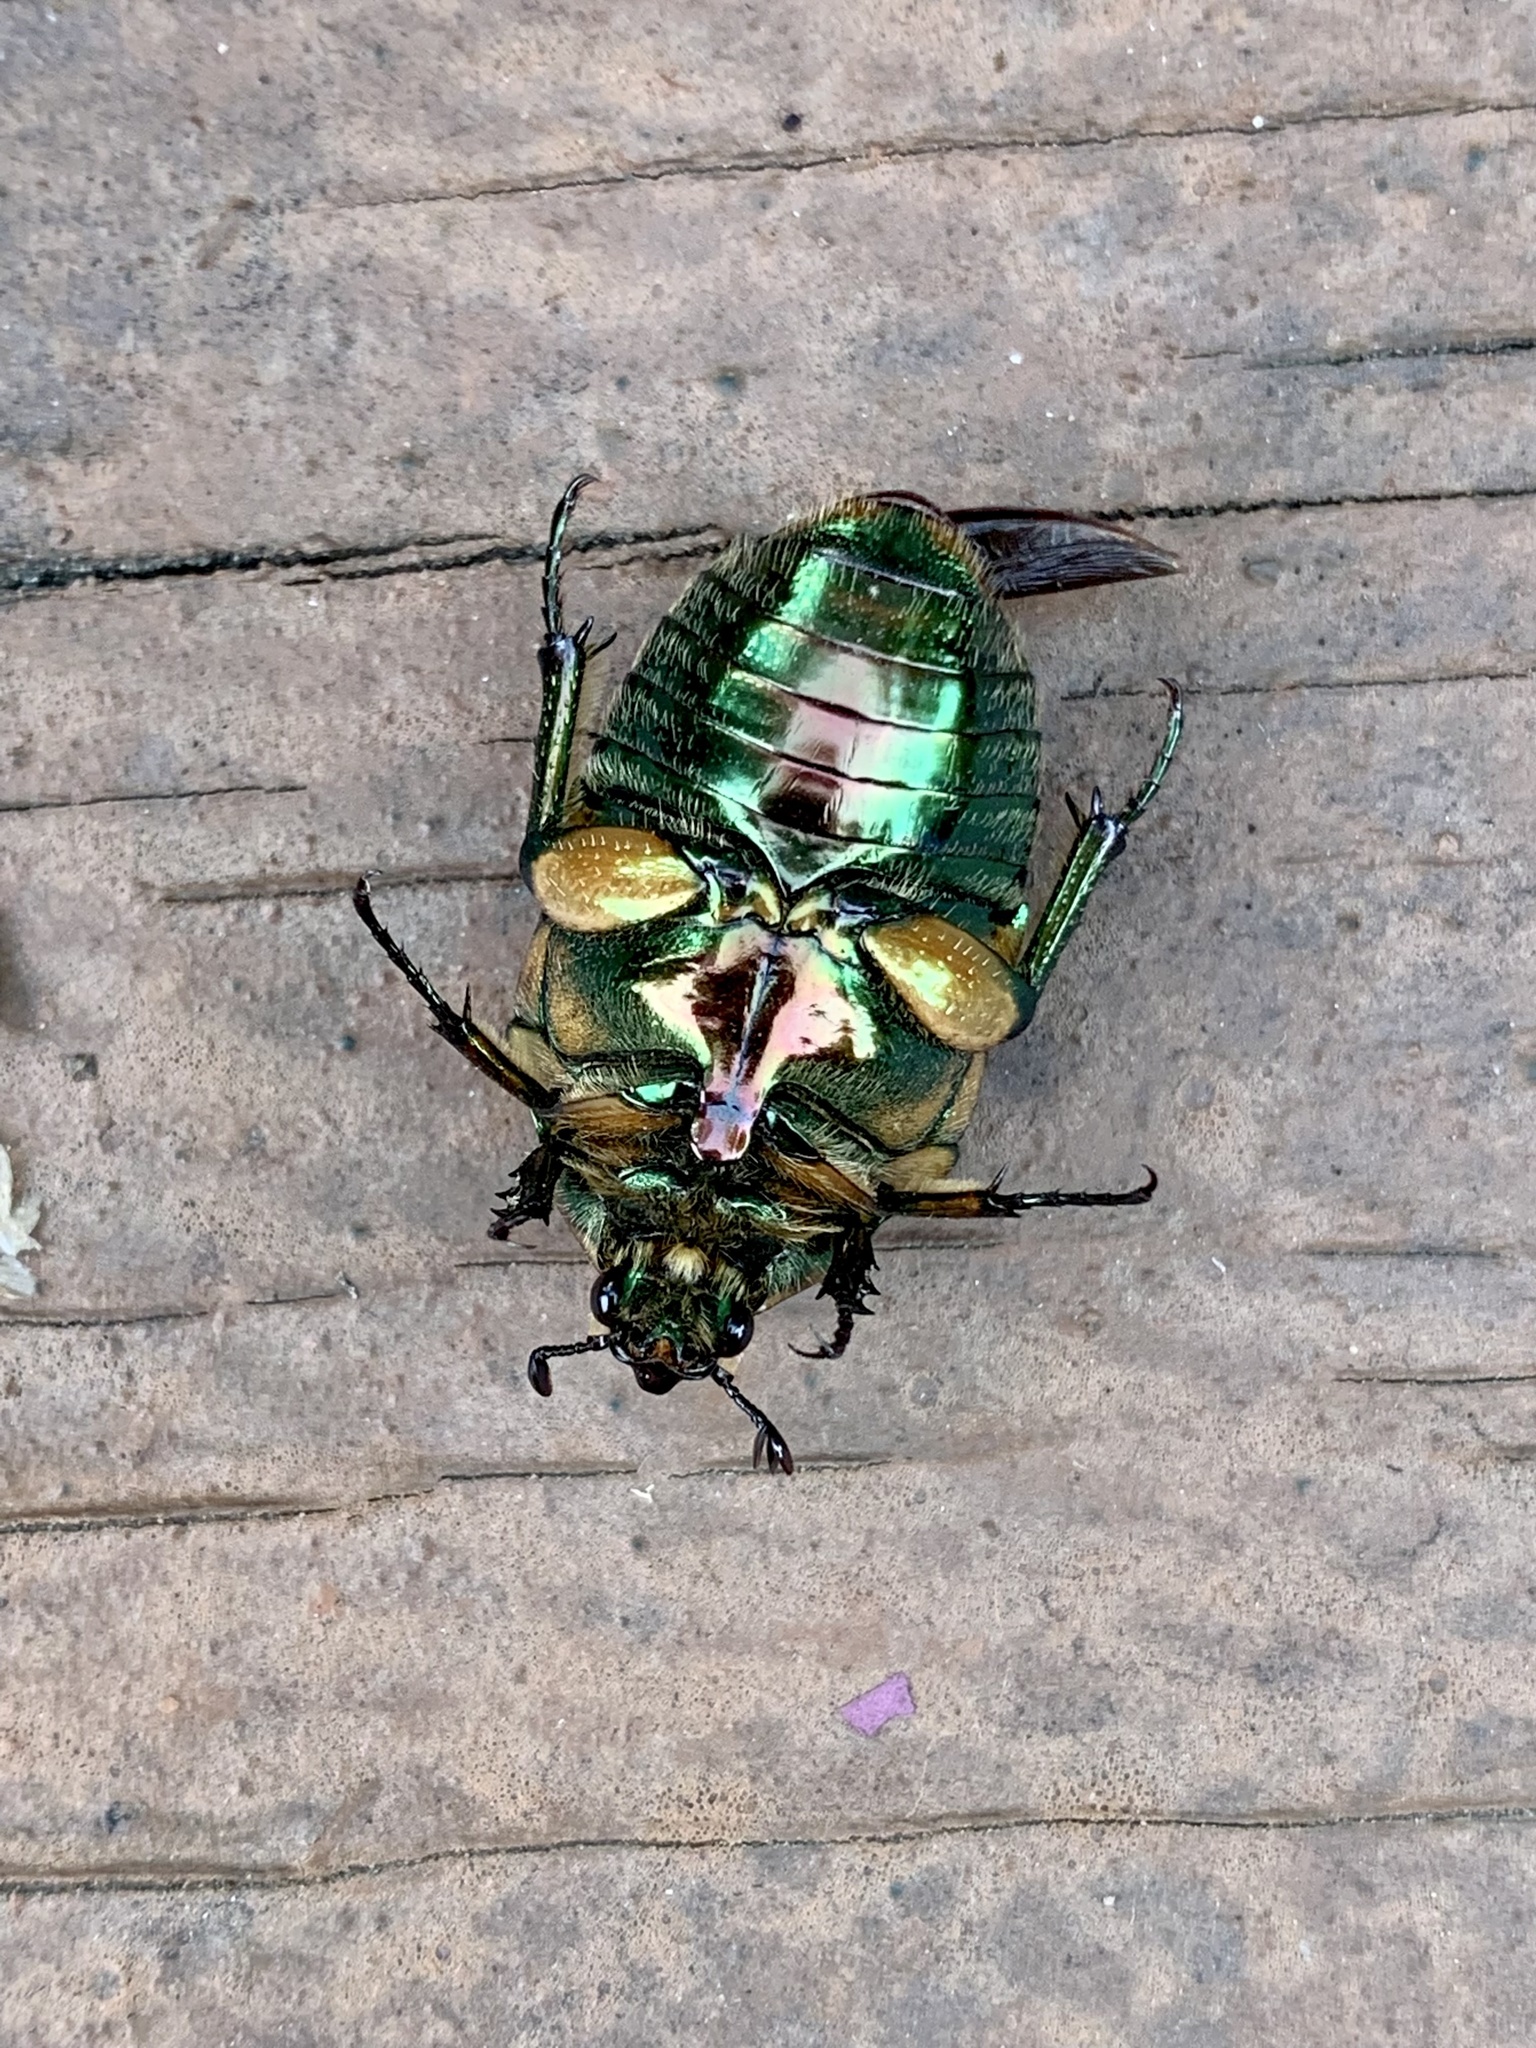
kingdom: Animalia
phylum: Arthropoda
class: Insecta
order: Coleoptera
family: Scarabaeidae
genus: Cotinis
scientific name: Cotinis nitida
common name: Common green june beetle
